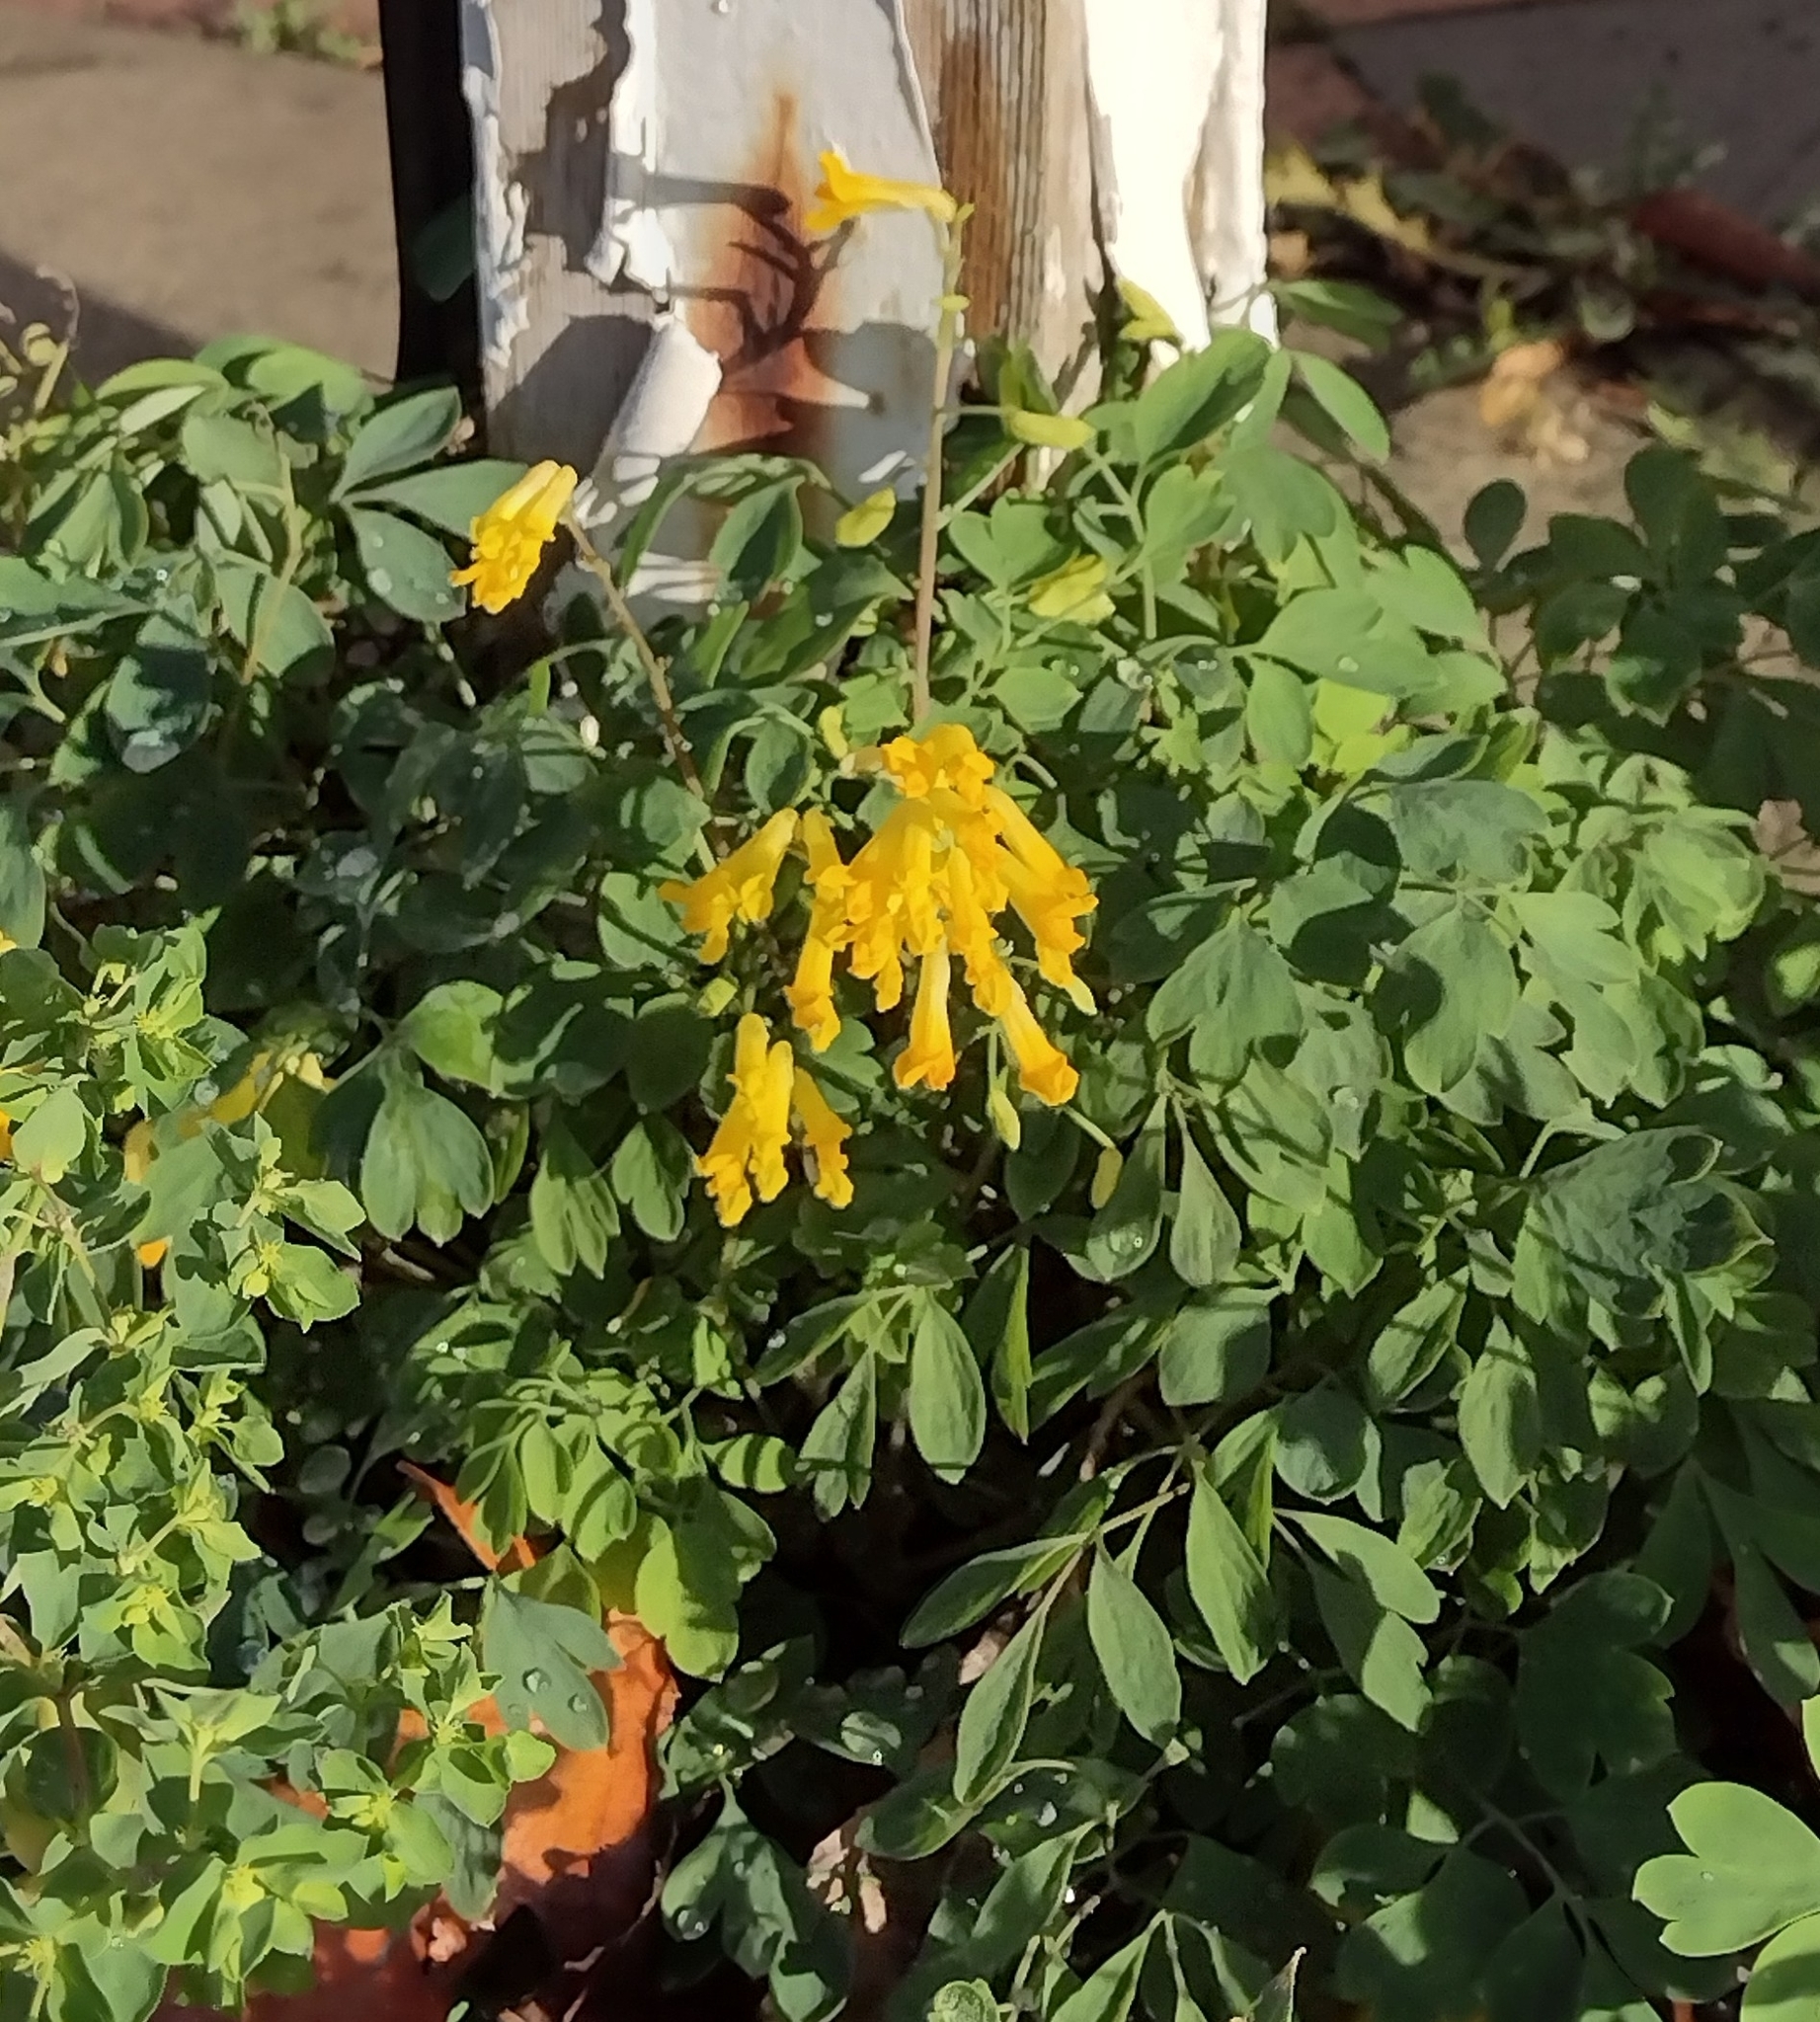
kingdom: Plantae
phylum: Tracheophyta
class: Magnoliopsida
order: Ranunculales
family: Papaveraceae
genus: Pseudofumaria
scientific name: Pseudofumaria lutea
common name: Yellow corydalis
